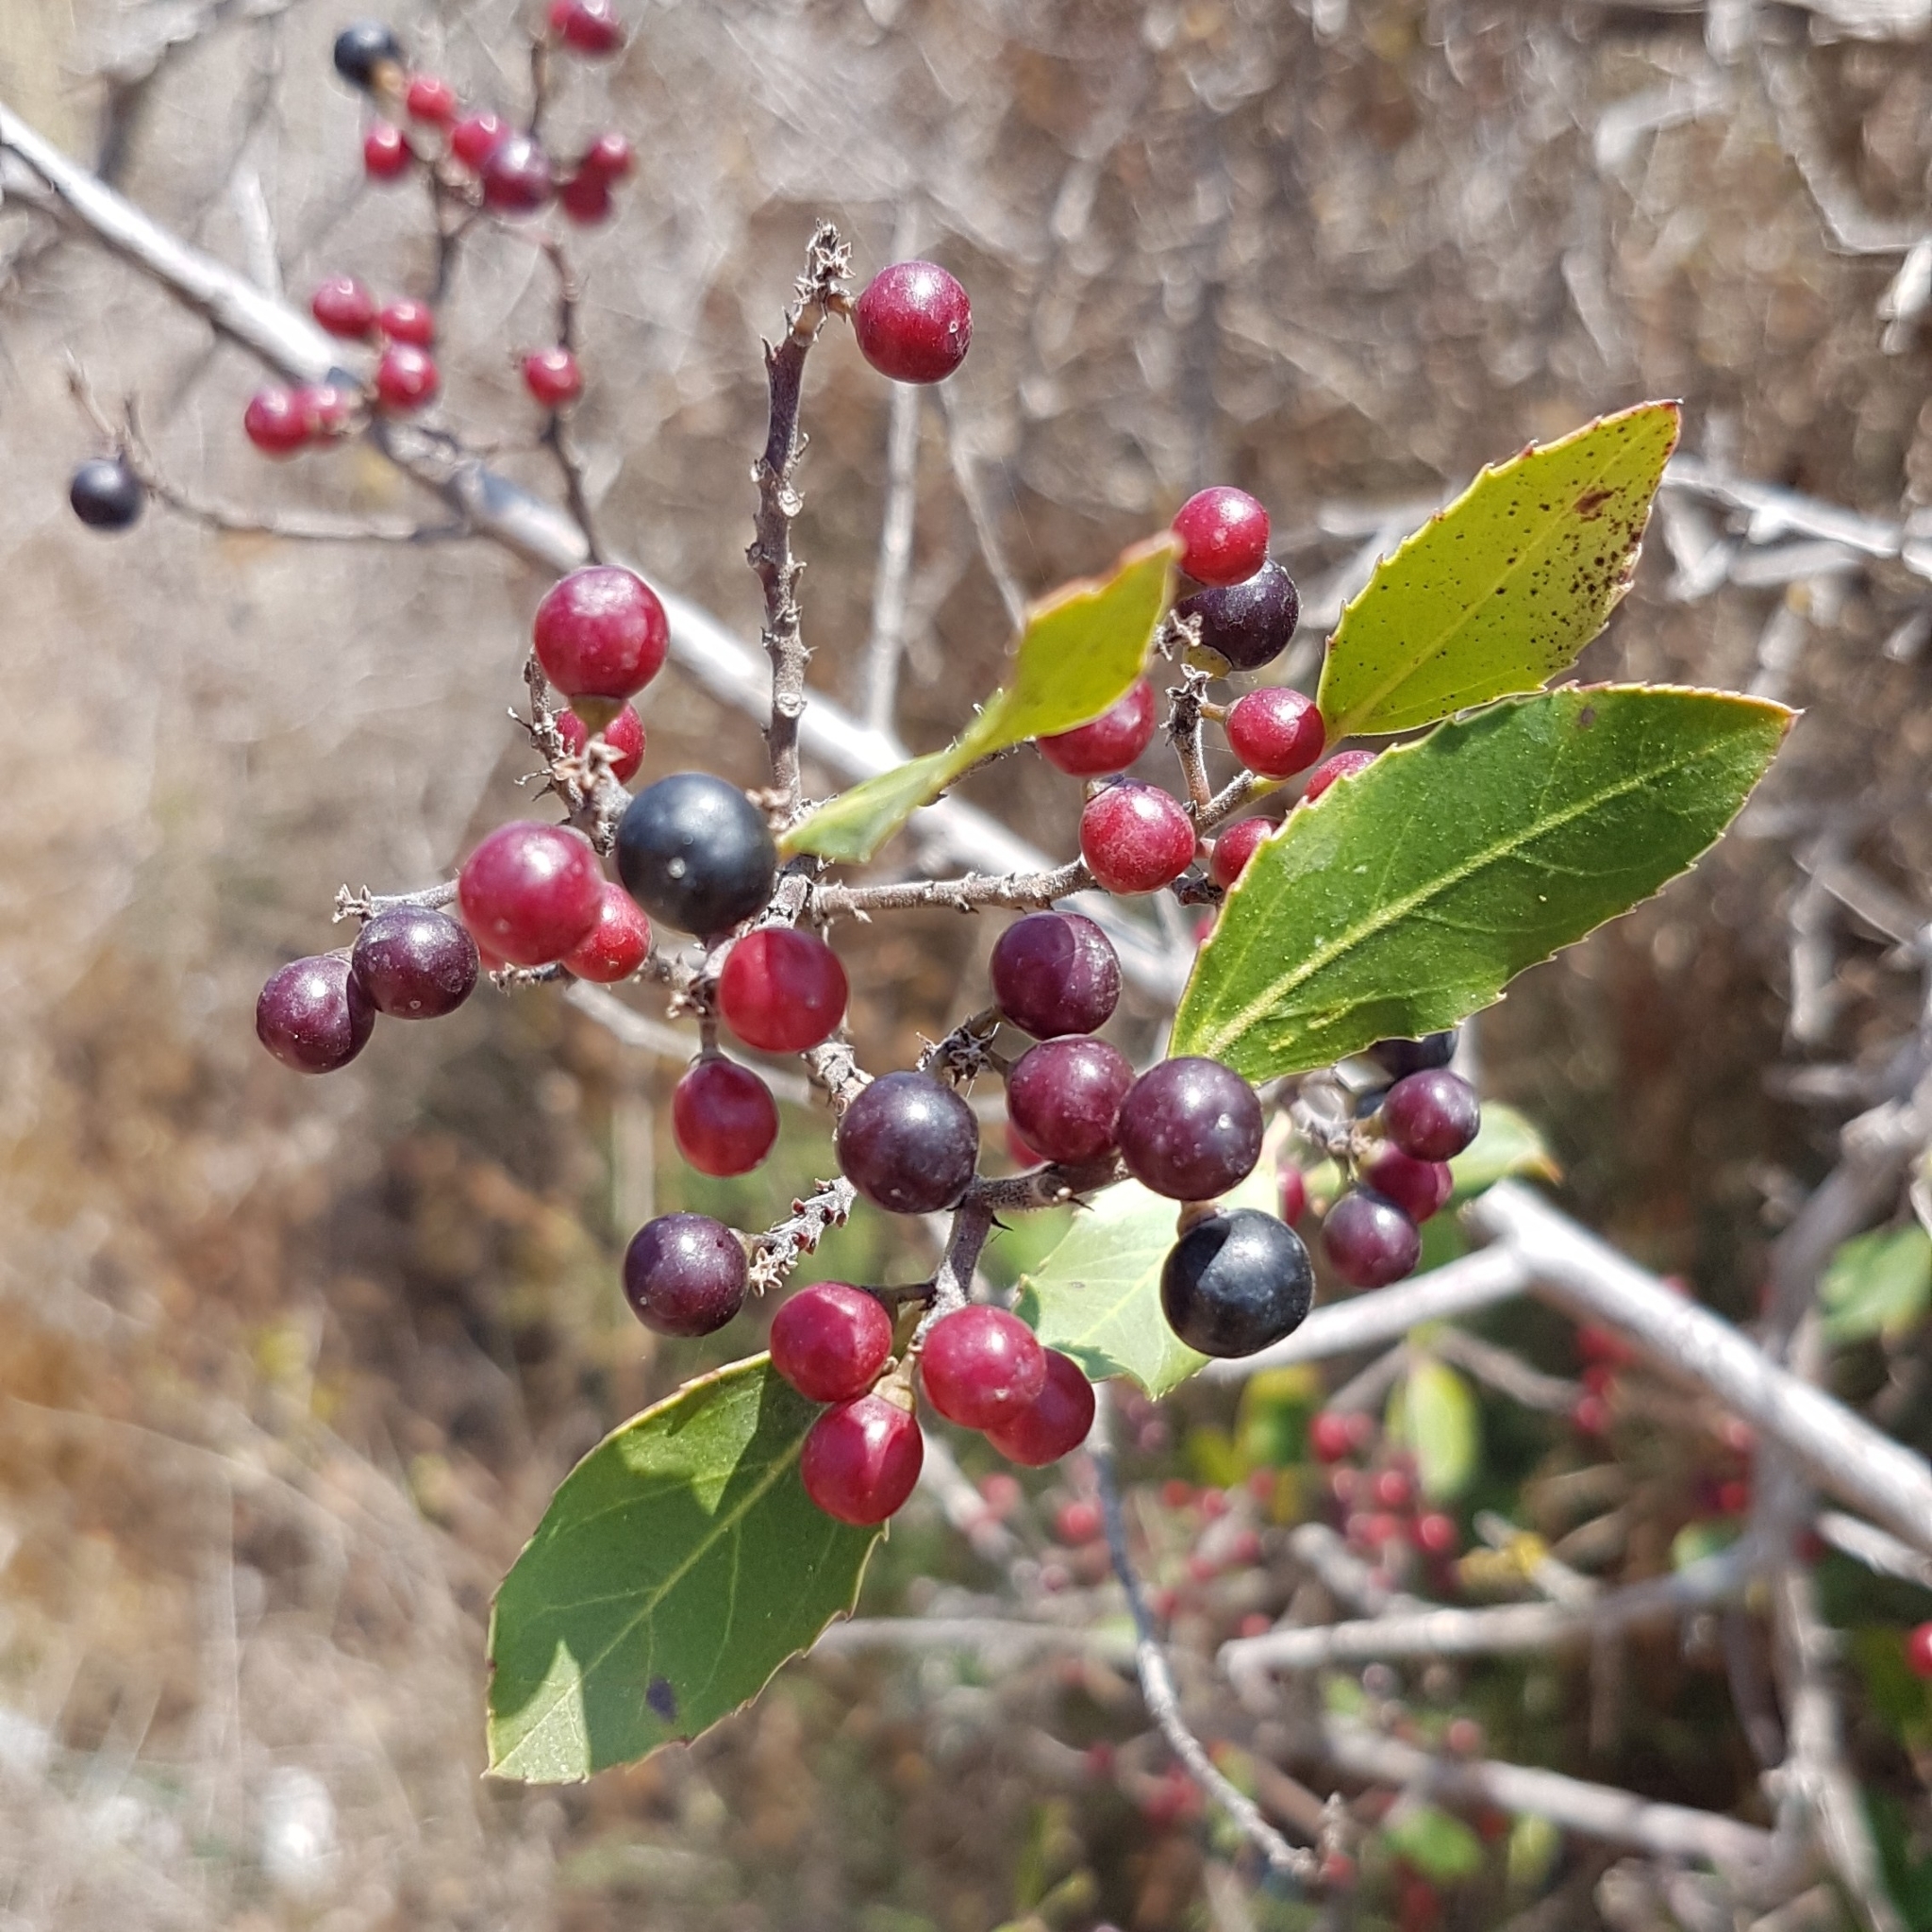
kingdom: Plantae
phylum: Tracheophyta
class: Magnoliopsida
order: Rosales
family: Rhamnaceae
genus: Rhamnus
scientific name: Rhamnus alaternus
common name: Mediterranean buckthorn
